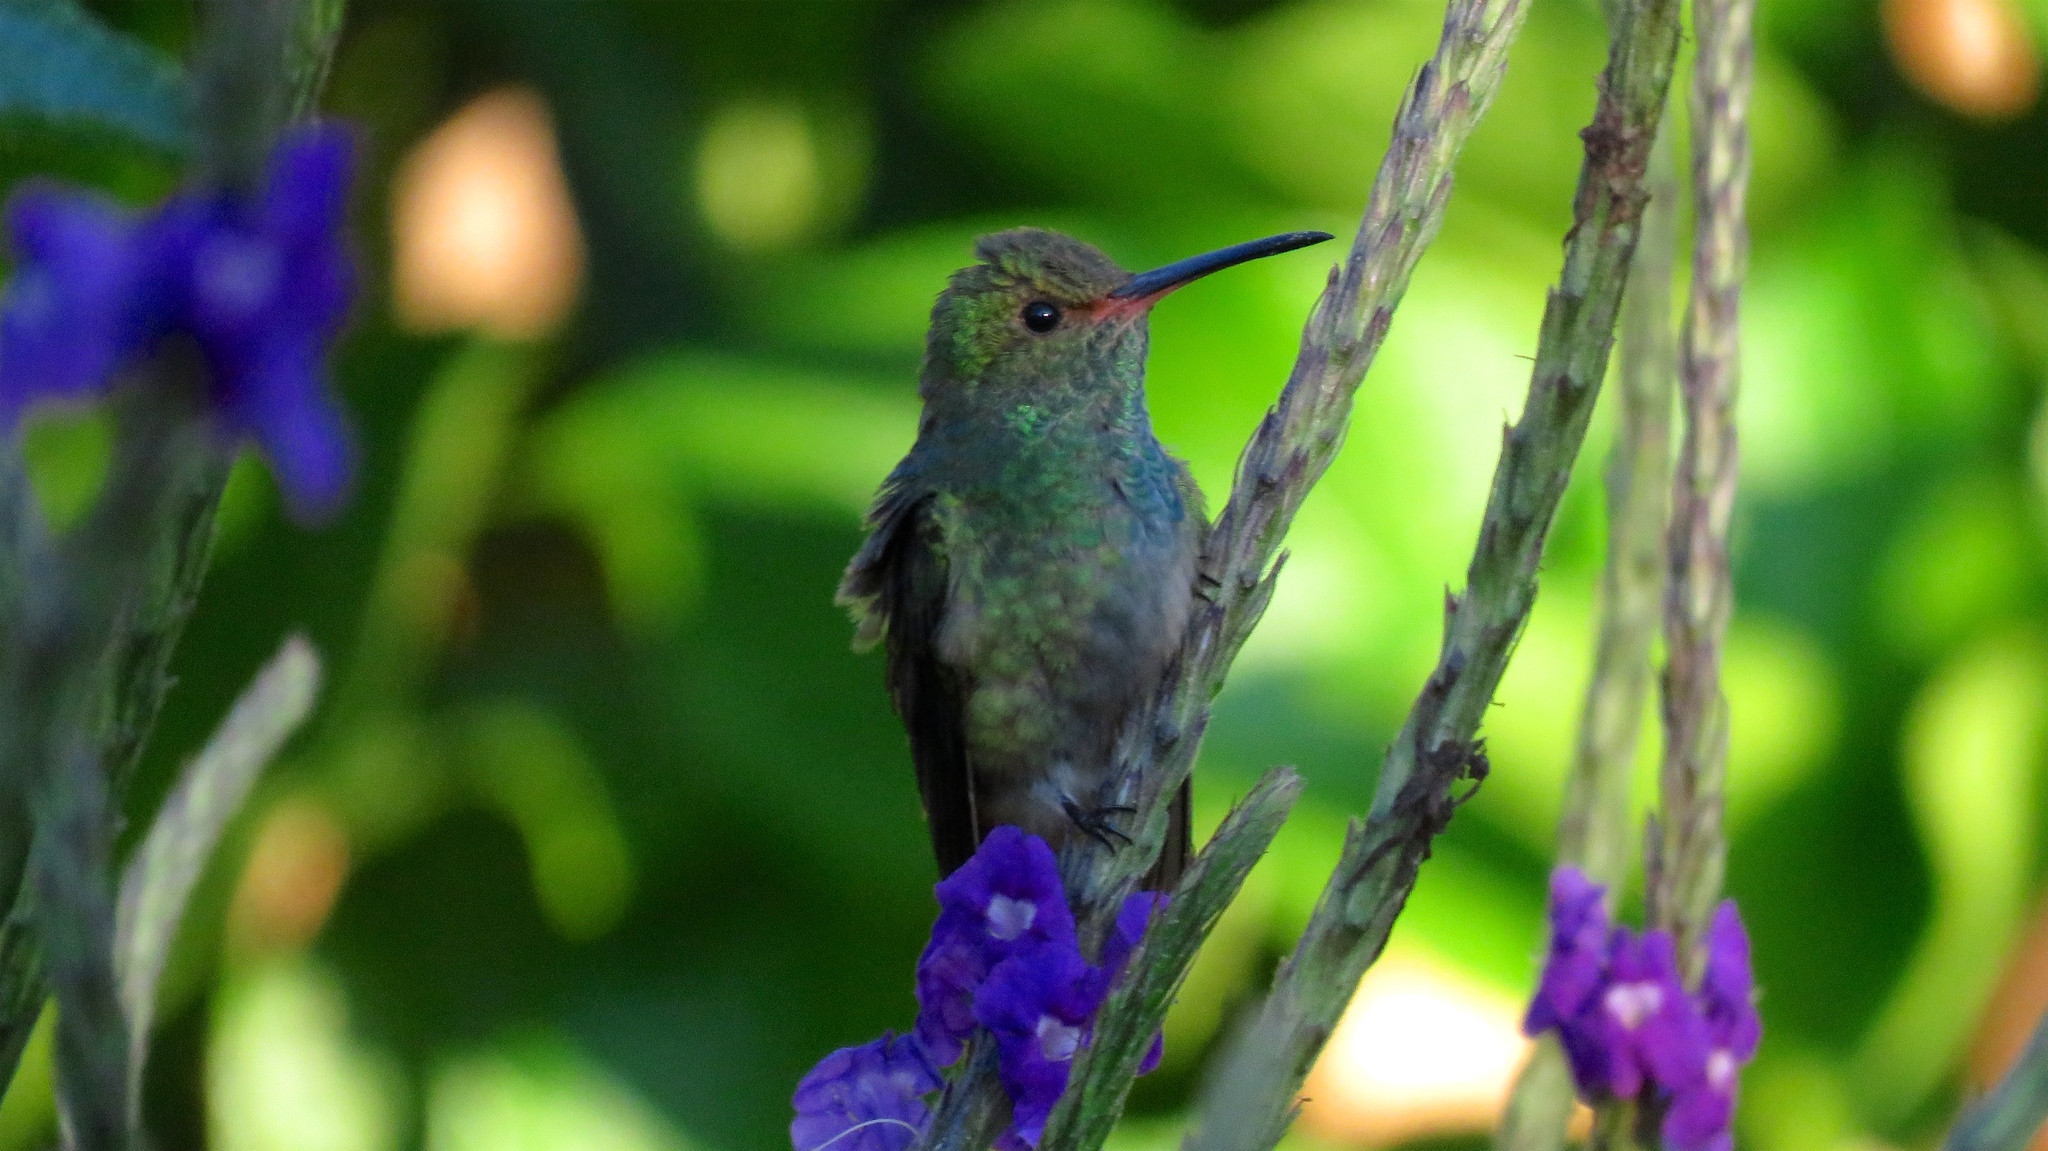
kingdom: Animalia
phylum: Chordata
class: Aves
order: Apodiformes
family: Trochilidae
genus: Amazilia
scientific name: Amazilia tzacatl
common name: Rufous-tailed hummingbird
